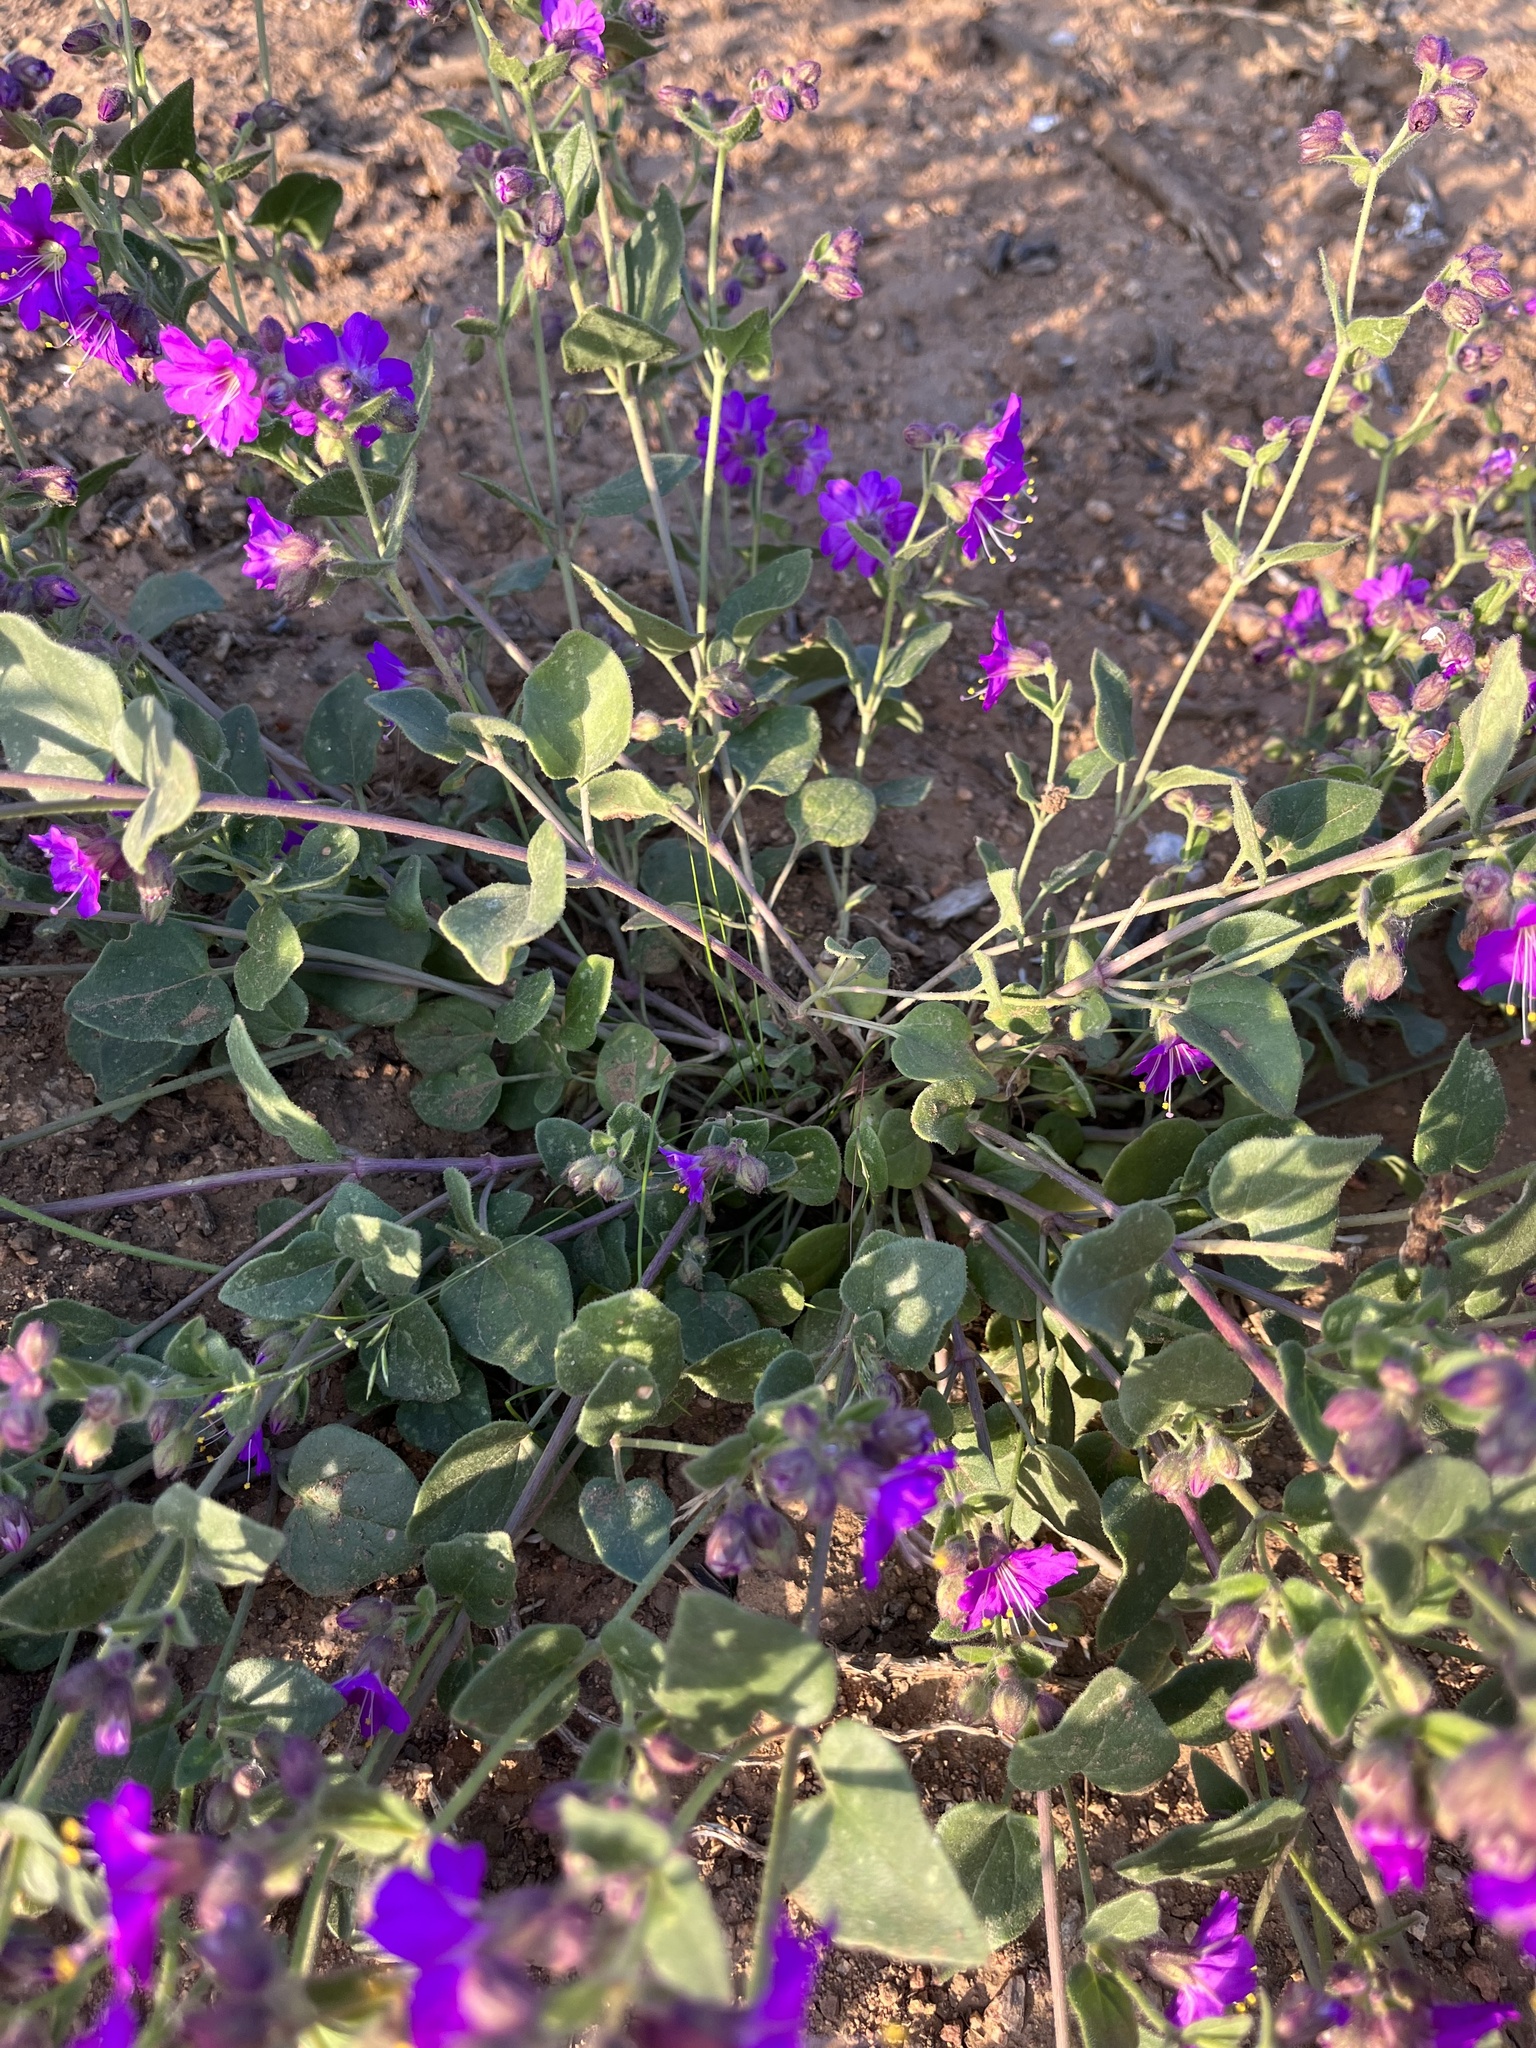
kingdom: Plantae
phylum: Tracheophyta
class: Magnoliopsida
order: Caryophyllales
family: Nyctaginaceae
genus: Mirabilis
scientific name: Mirabilis laevis
